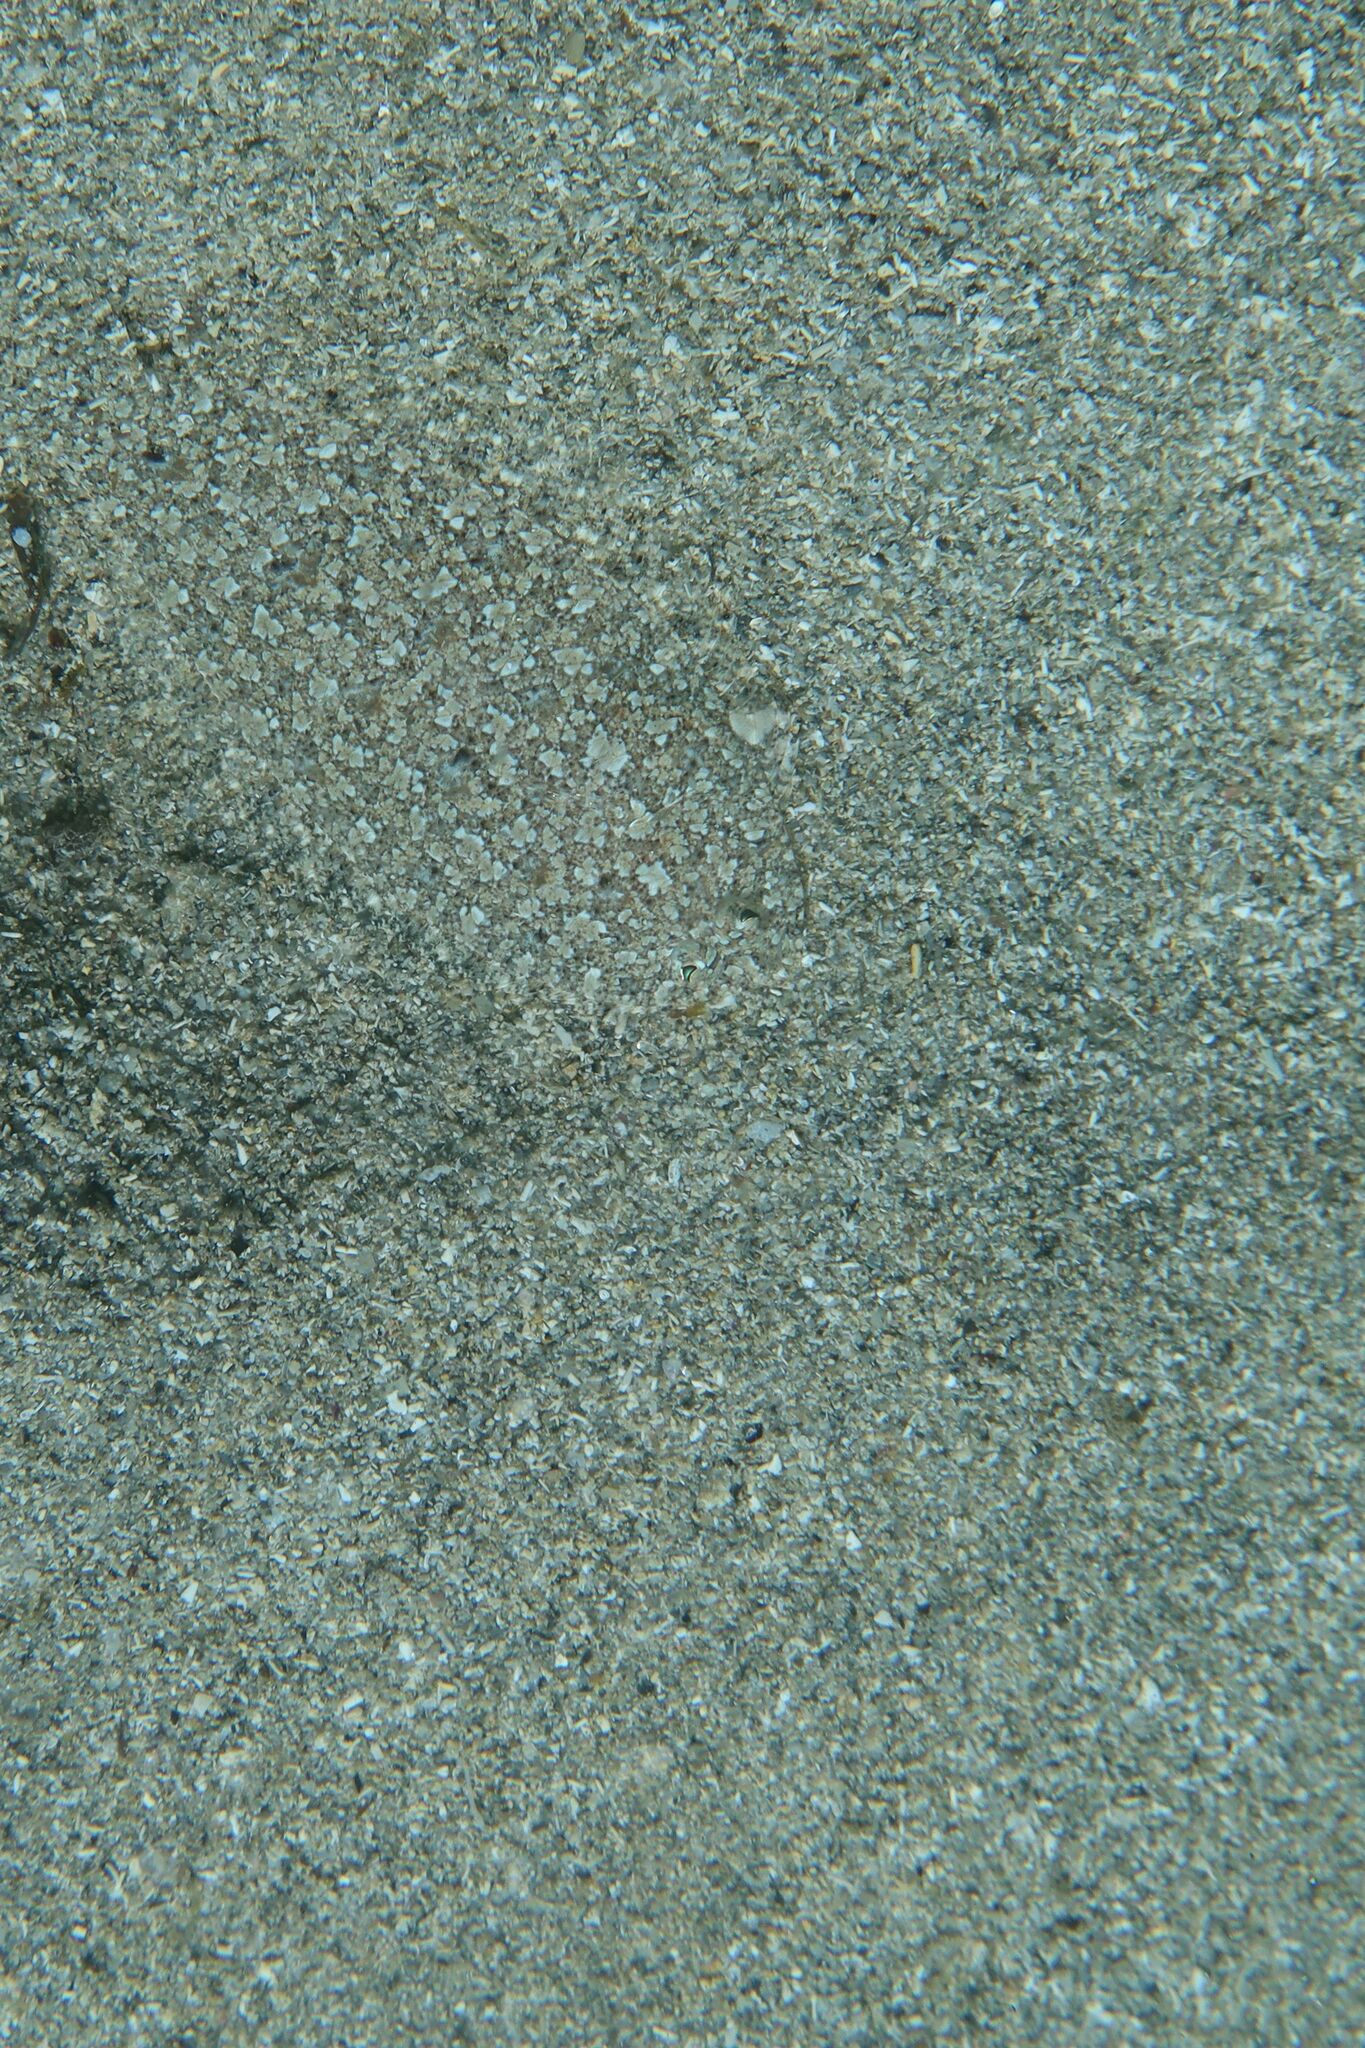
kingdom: Animalia
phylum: Chordata
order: Pleuronectiformes
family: Bothidae
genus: Arnoglossus
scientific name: Arnoglossus thori
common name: Thor's scaldfish
